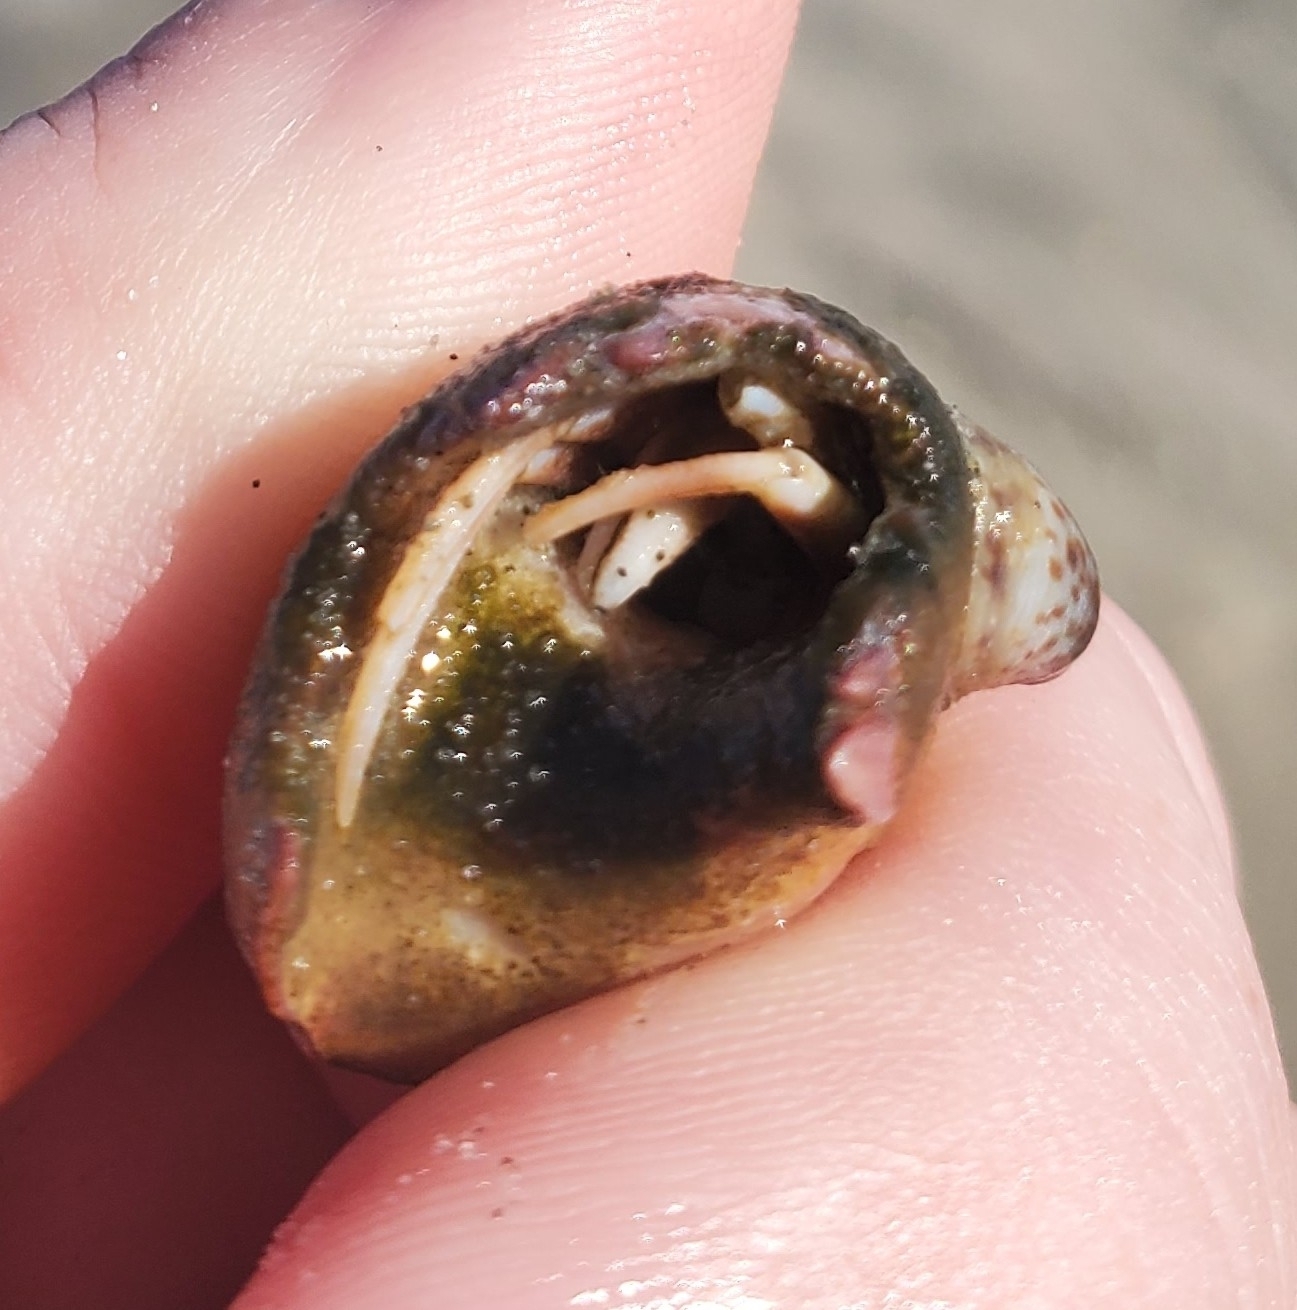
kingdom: Animalia
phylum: Arthropoda
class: Malacostraca
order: Decapoda
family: Paguridae
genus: Pagurus
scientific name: Pagurus longicarpus
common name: Long-armed hermit crab
